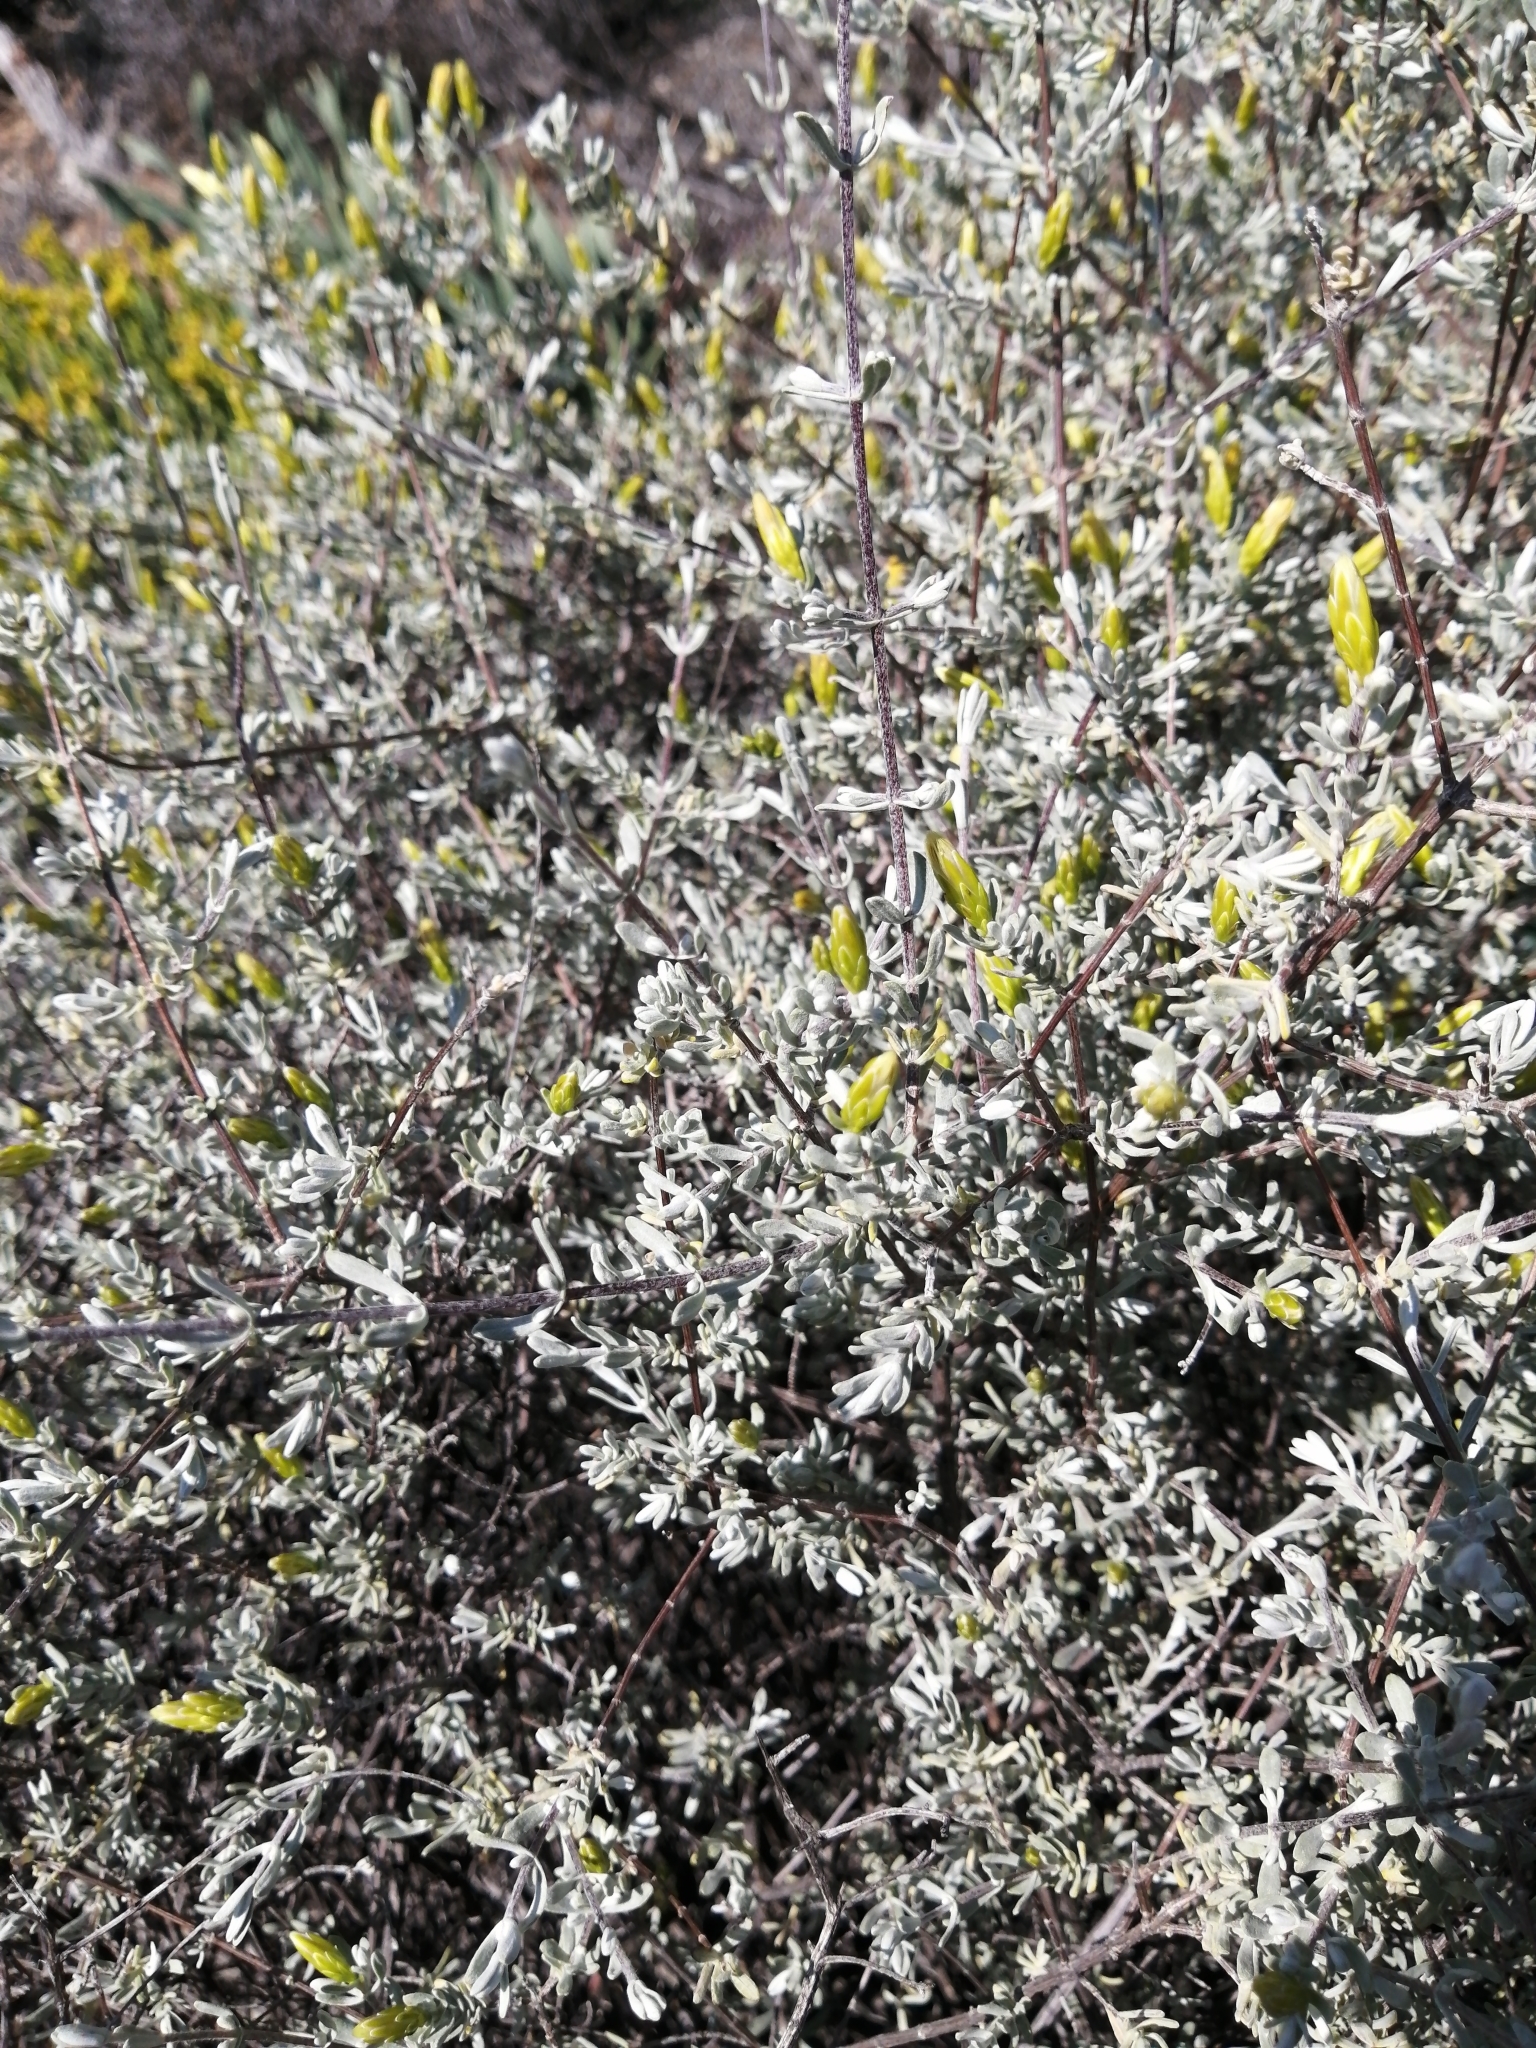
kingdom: Plantae
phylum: Tracheophyta
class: Magnoliopsida
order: Asterales
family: Asteraceae
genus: Pteronia
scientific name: Pteronia incana
